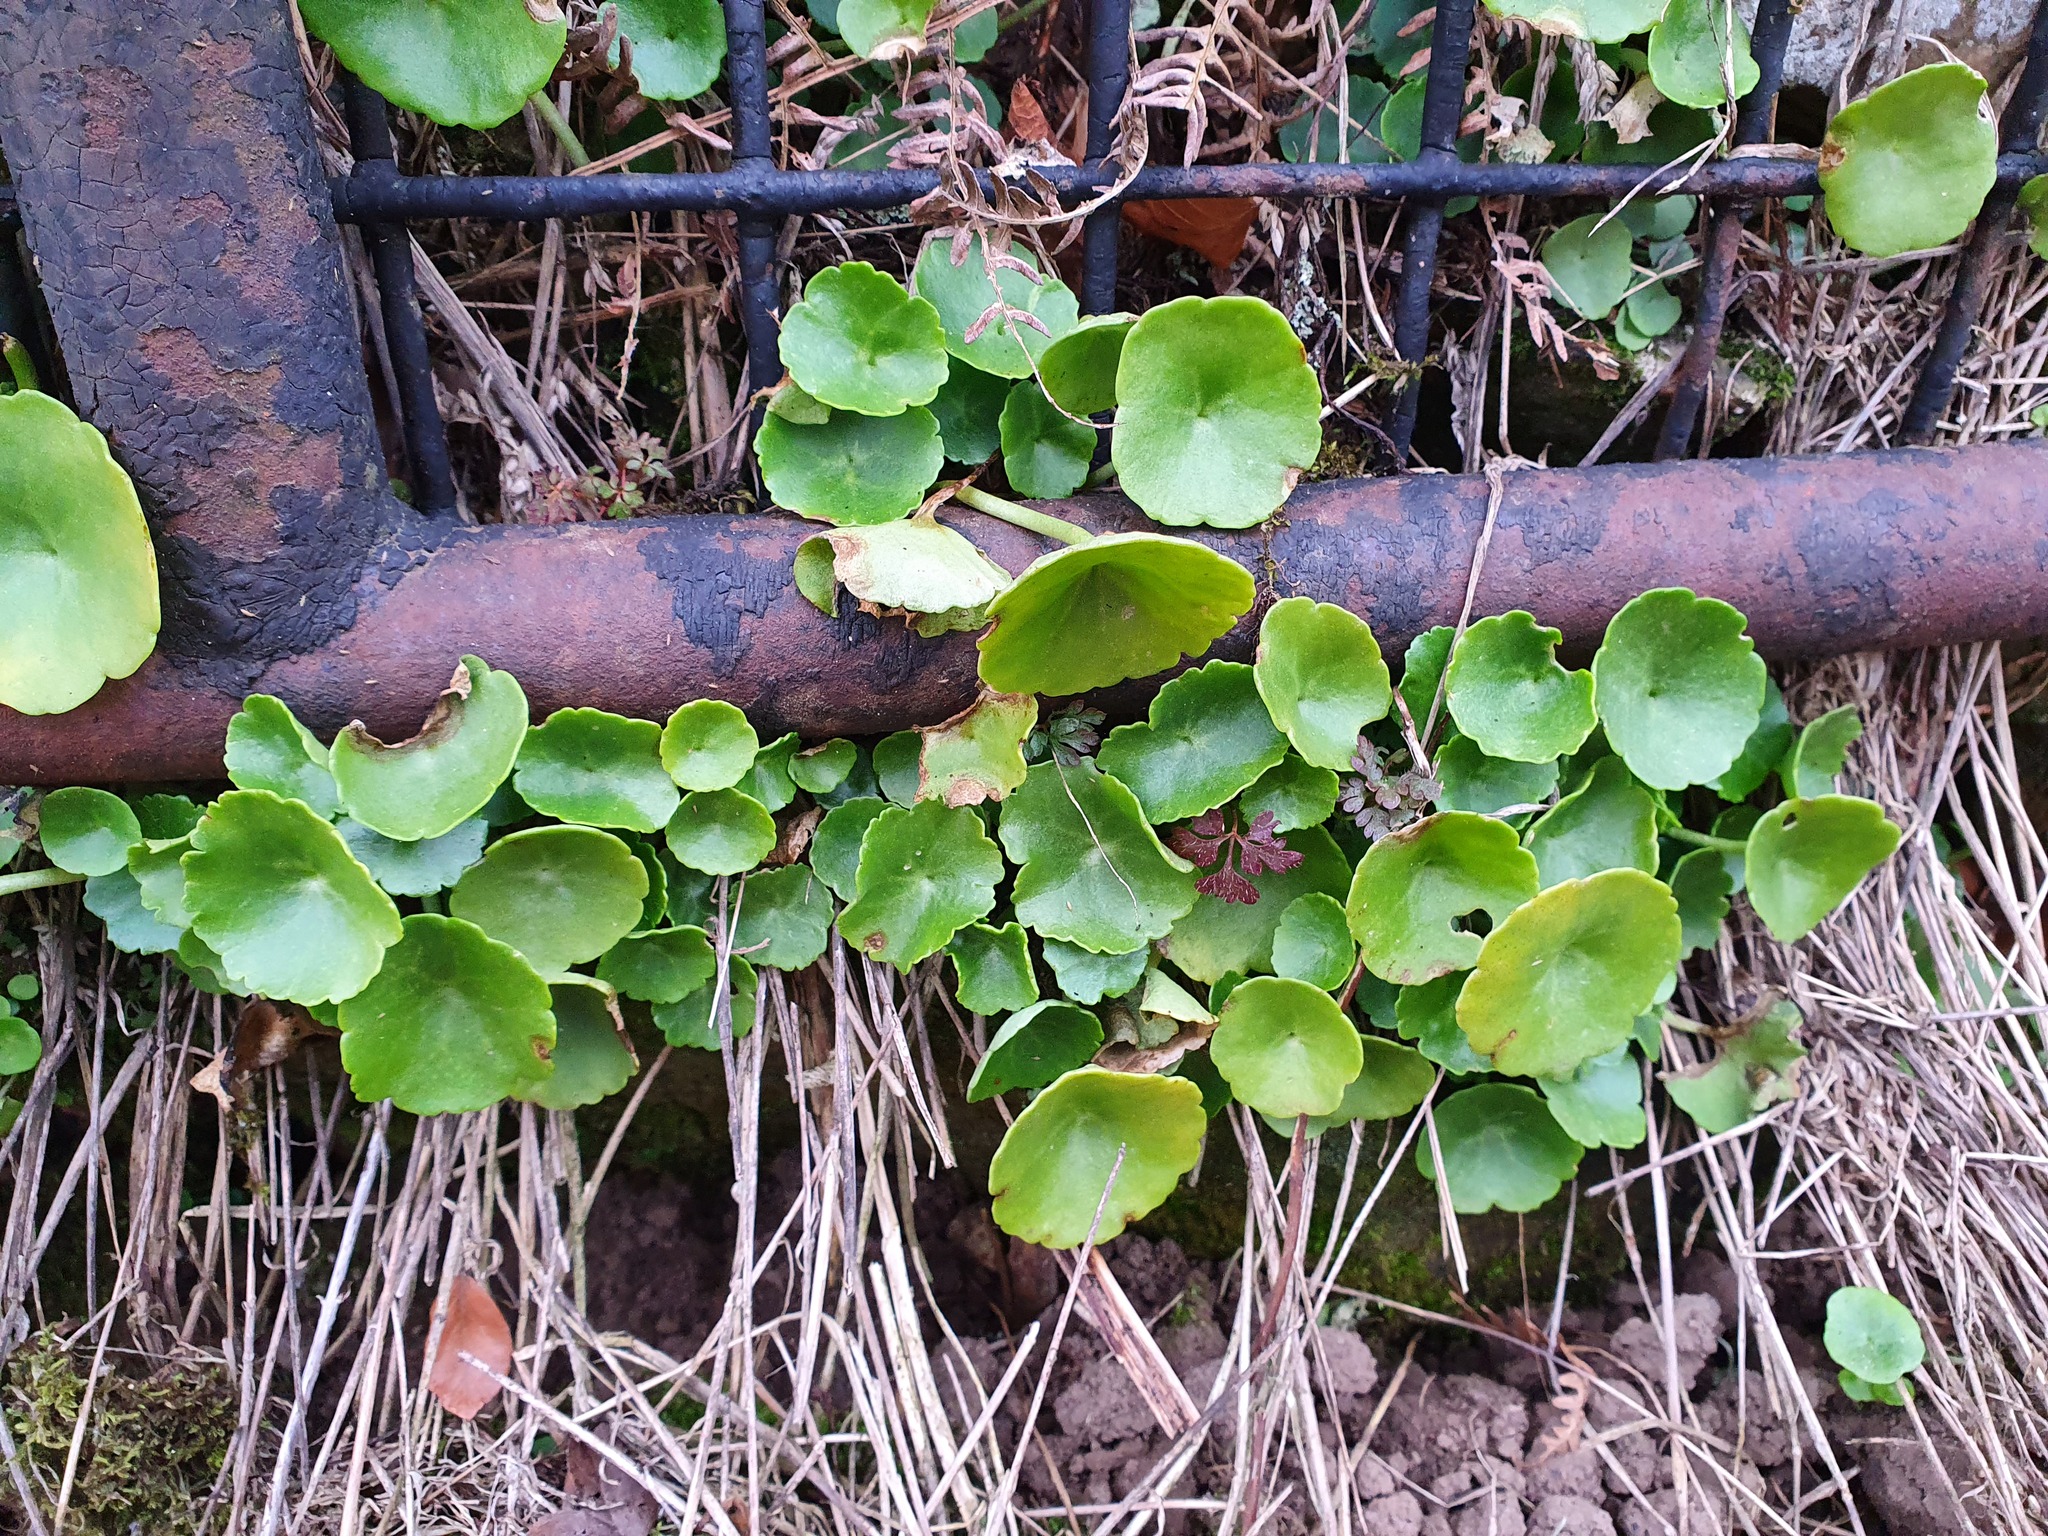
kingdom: Plantae
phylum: Tracheophyta
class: Magnoliopsida
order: Saxifragales
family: Crassulaceae
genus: Umbilicus
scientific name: Umbilicus rupestris
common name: Navelwort
